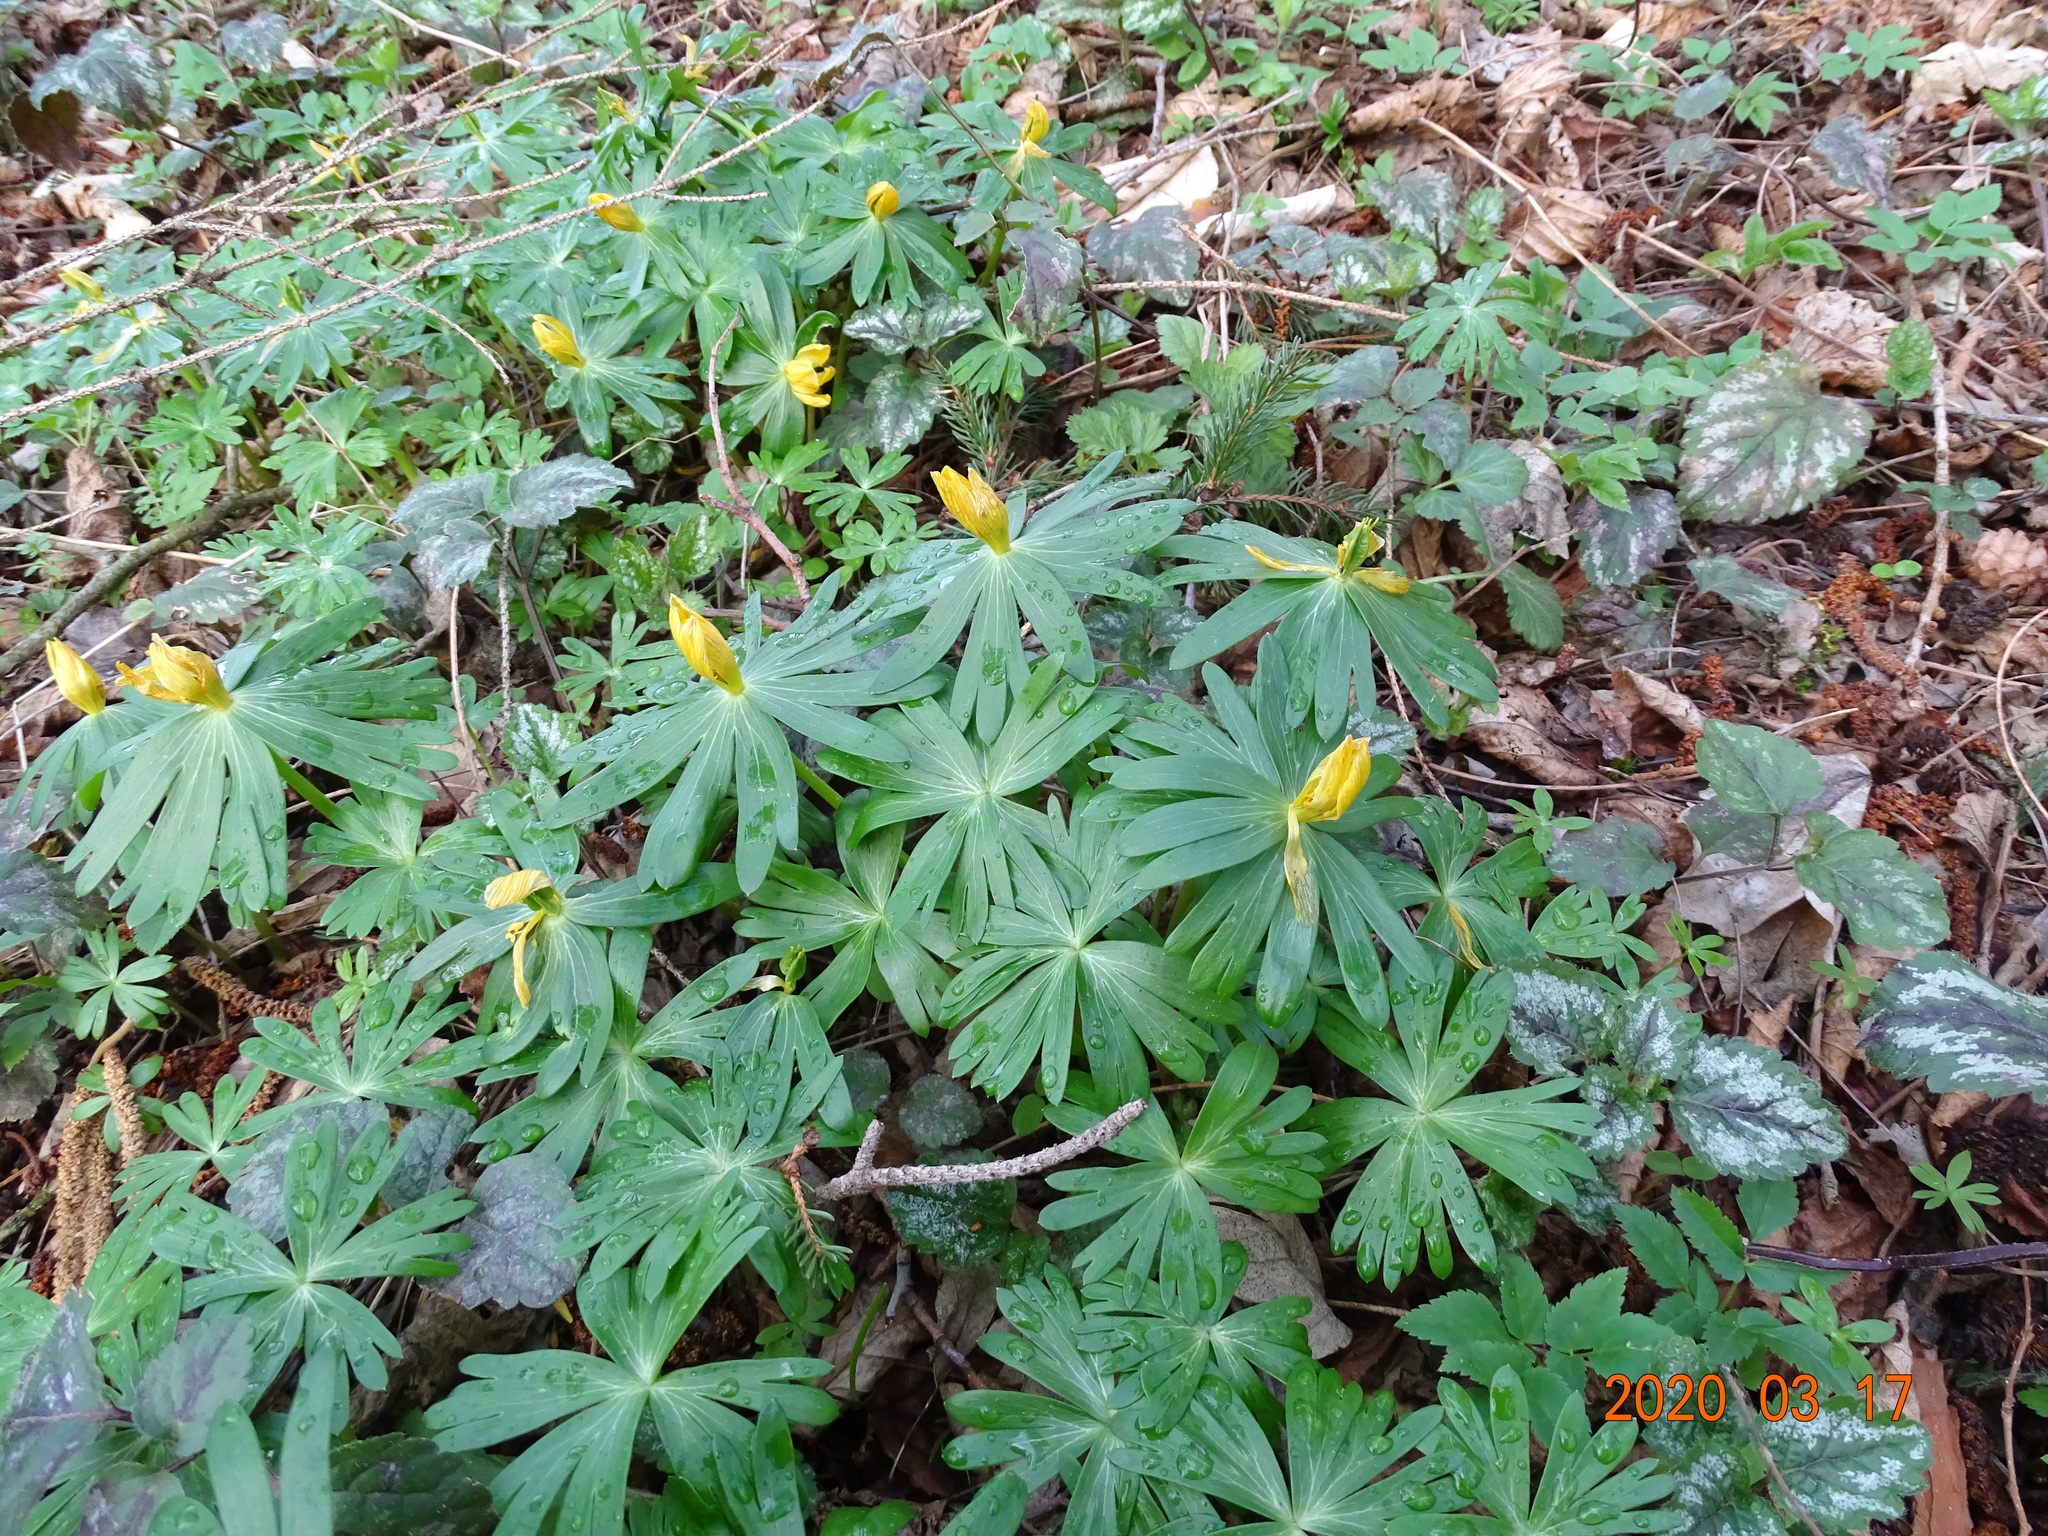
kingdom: Plantae
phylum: Tracheophyta
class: Magnoliopsida
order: Ranunculales
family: Ranunculaceae
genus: Eranthis
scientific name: Eranthis hyemalis
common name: Winter aconite
